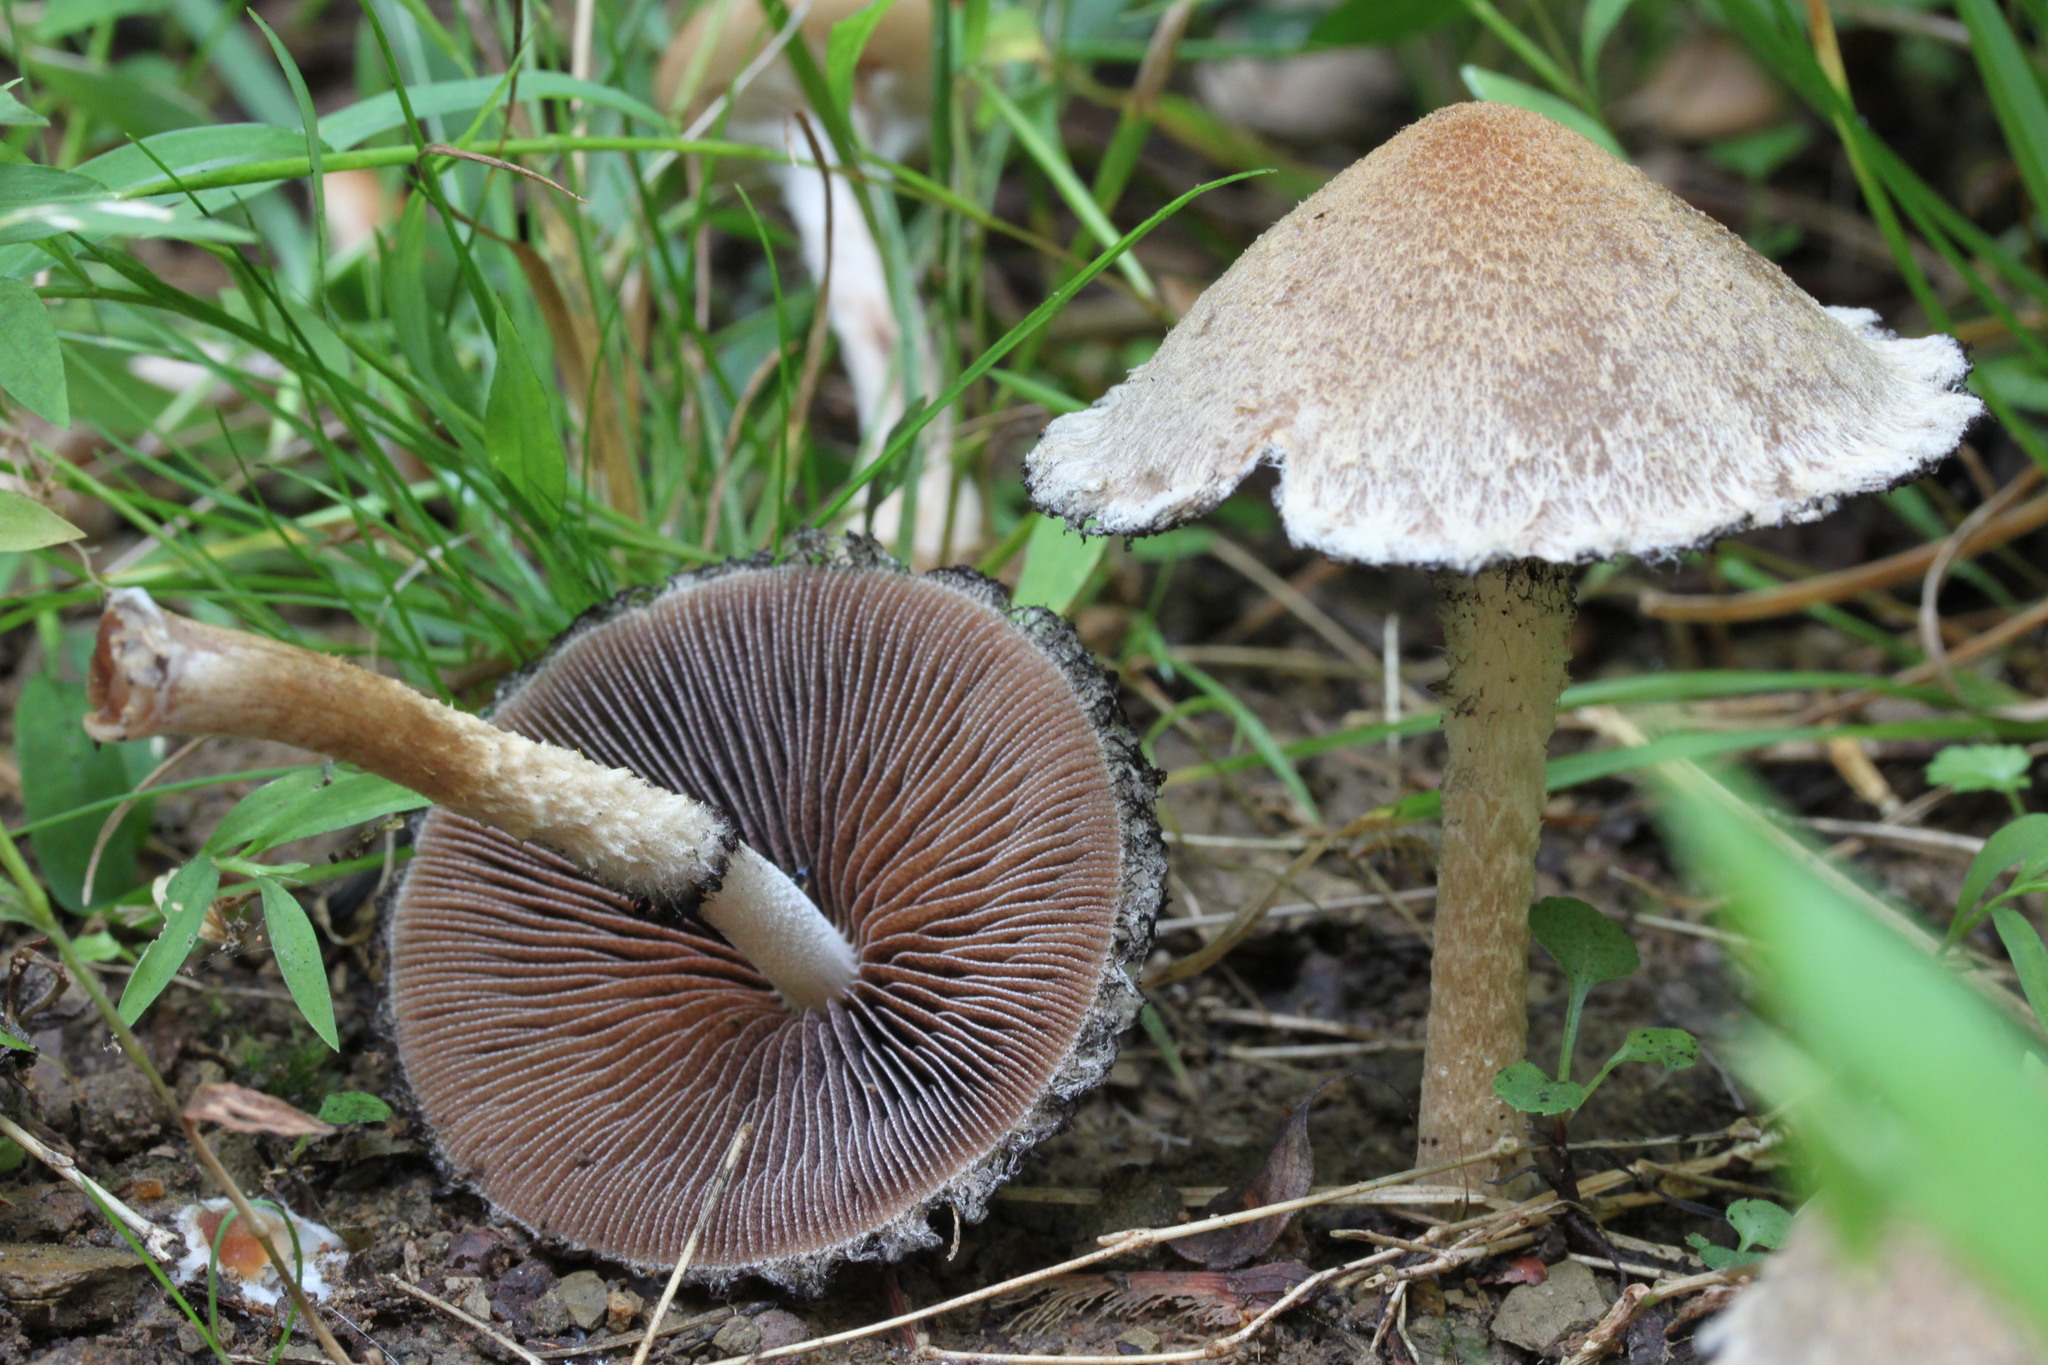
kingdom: Fungi
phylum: Basidiomycota
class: Agaricomycetes
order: Agaricales
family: Psathyrellaceae
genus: Lacrymaria
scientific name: Lacrymaria lacrymabunda
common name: Weeping widow
